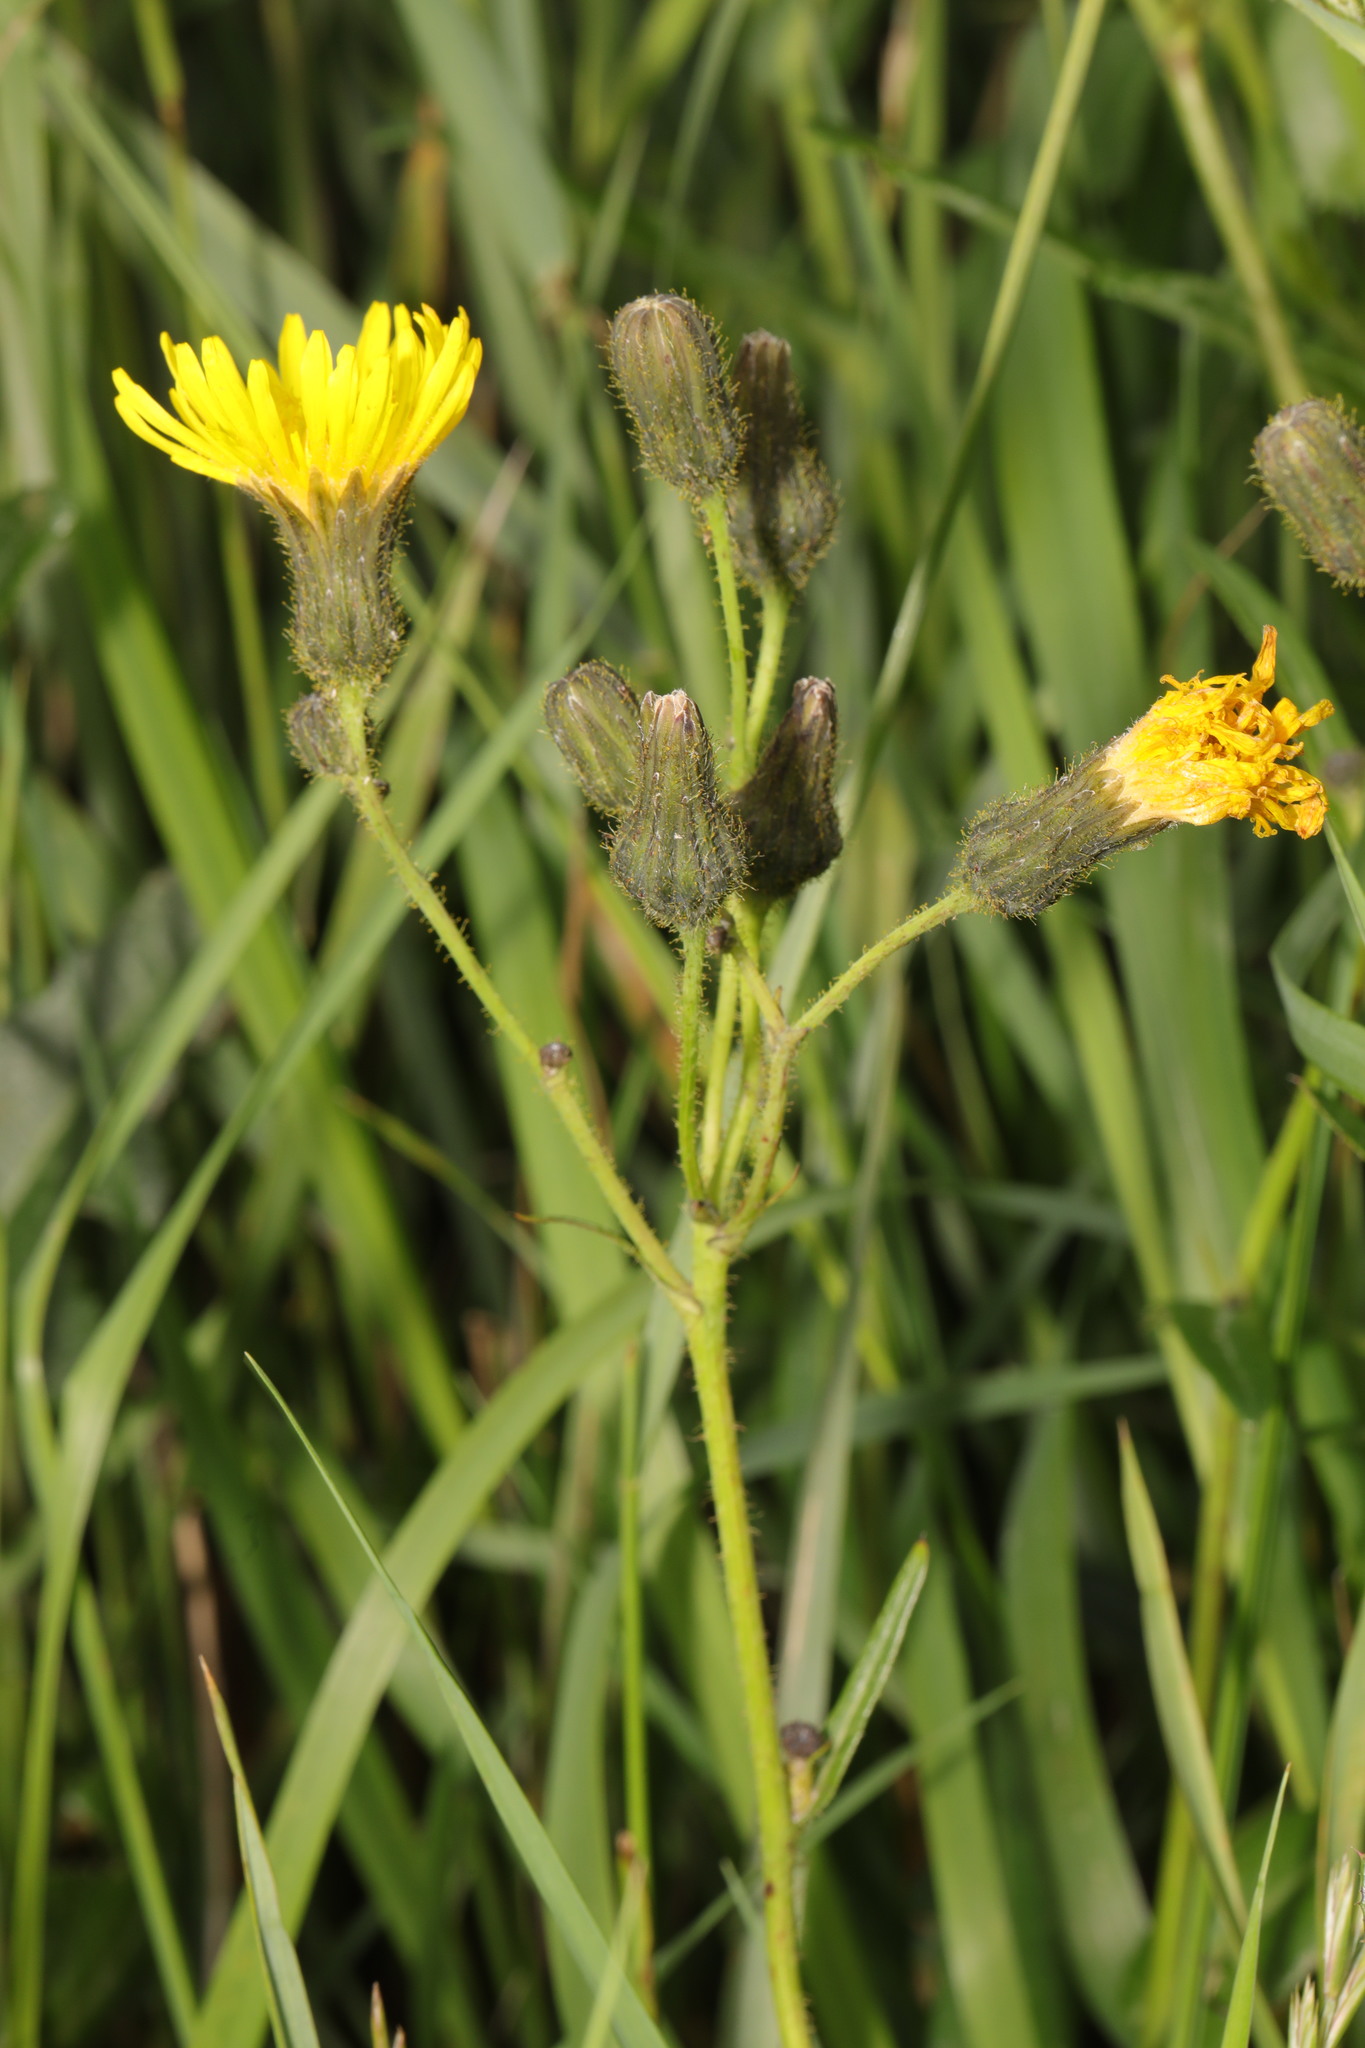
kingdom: Plantae
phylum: Tracheophyta
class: Magnoliopsida
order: Asterales
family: Asteraceae
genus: Sonchus
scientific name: Sonchus arvensis
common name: Perennial sow-thistle
